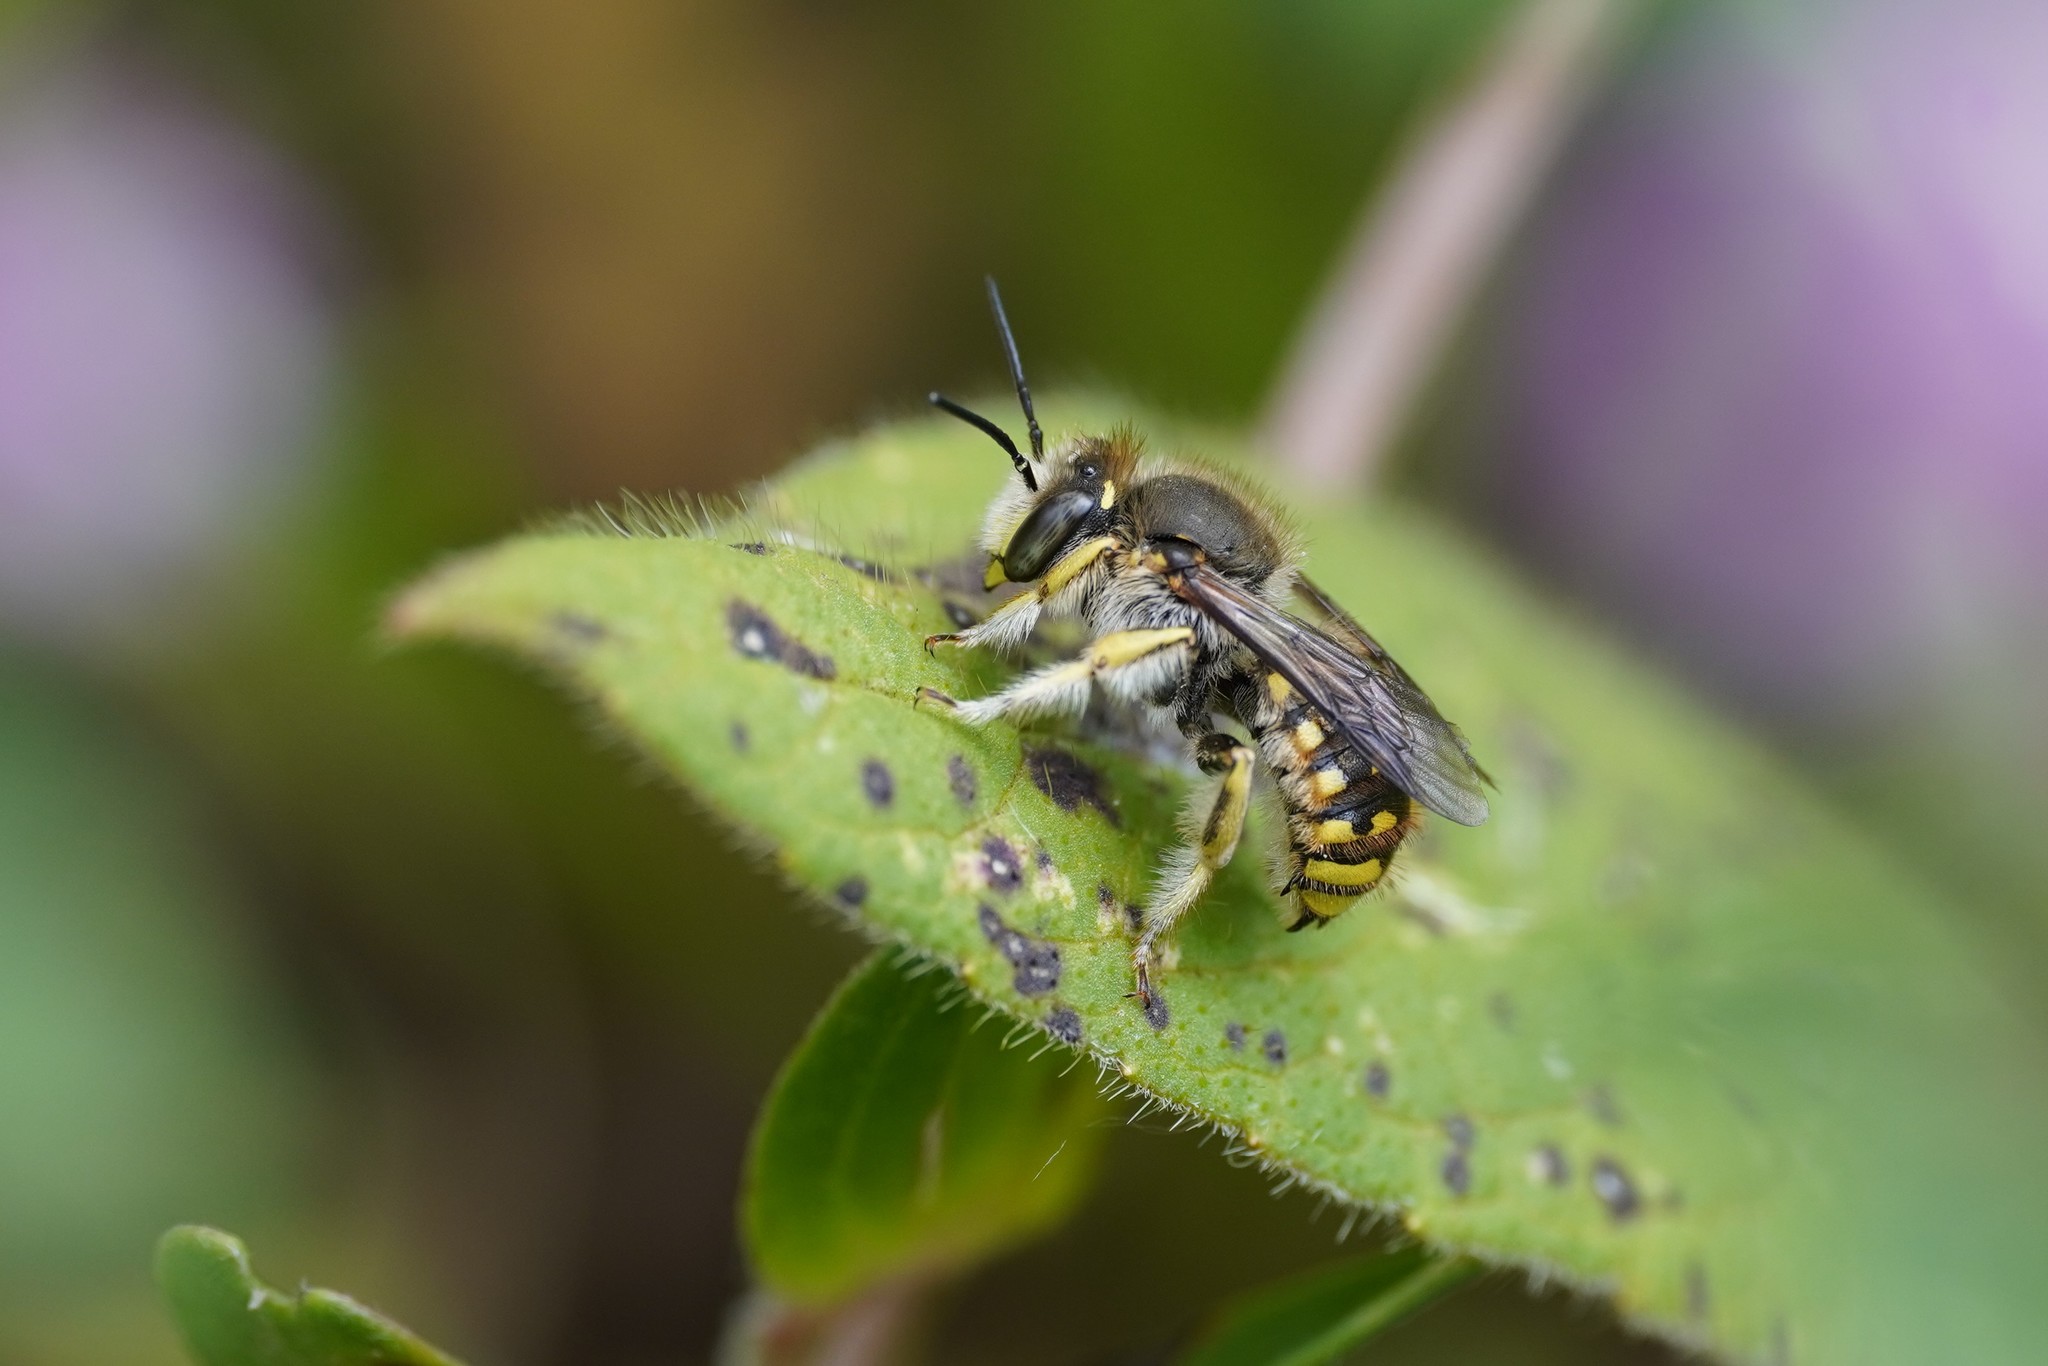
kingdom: Animalia
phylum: Arthropoda
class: Insecta
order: Hymenoptera
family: Megachilidae
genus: Anthidium
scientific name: Anthidium manicatum
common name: Wool carder bee
